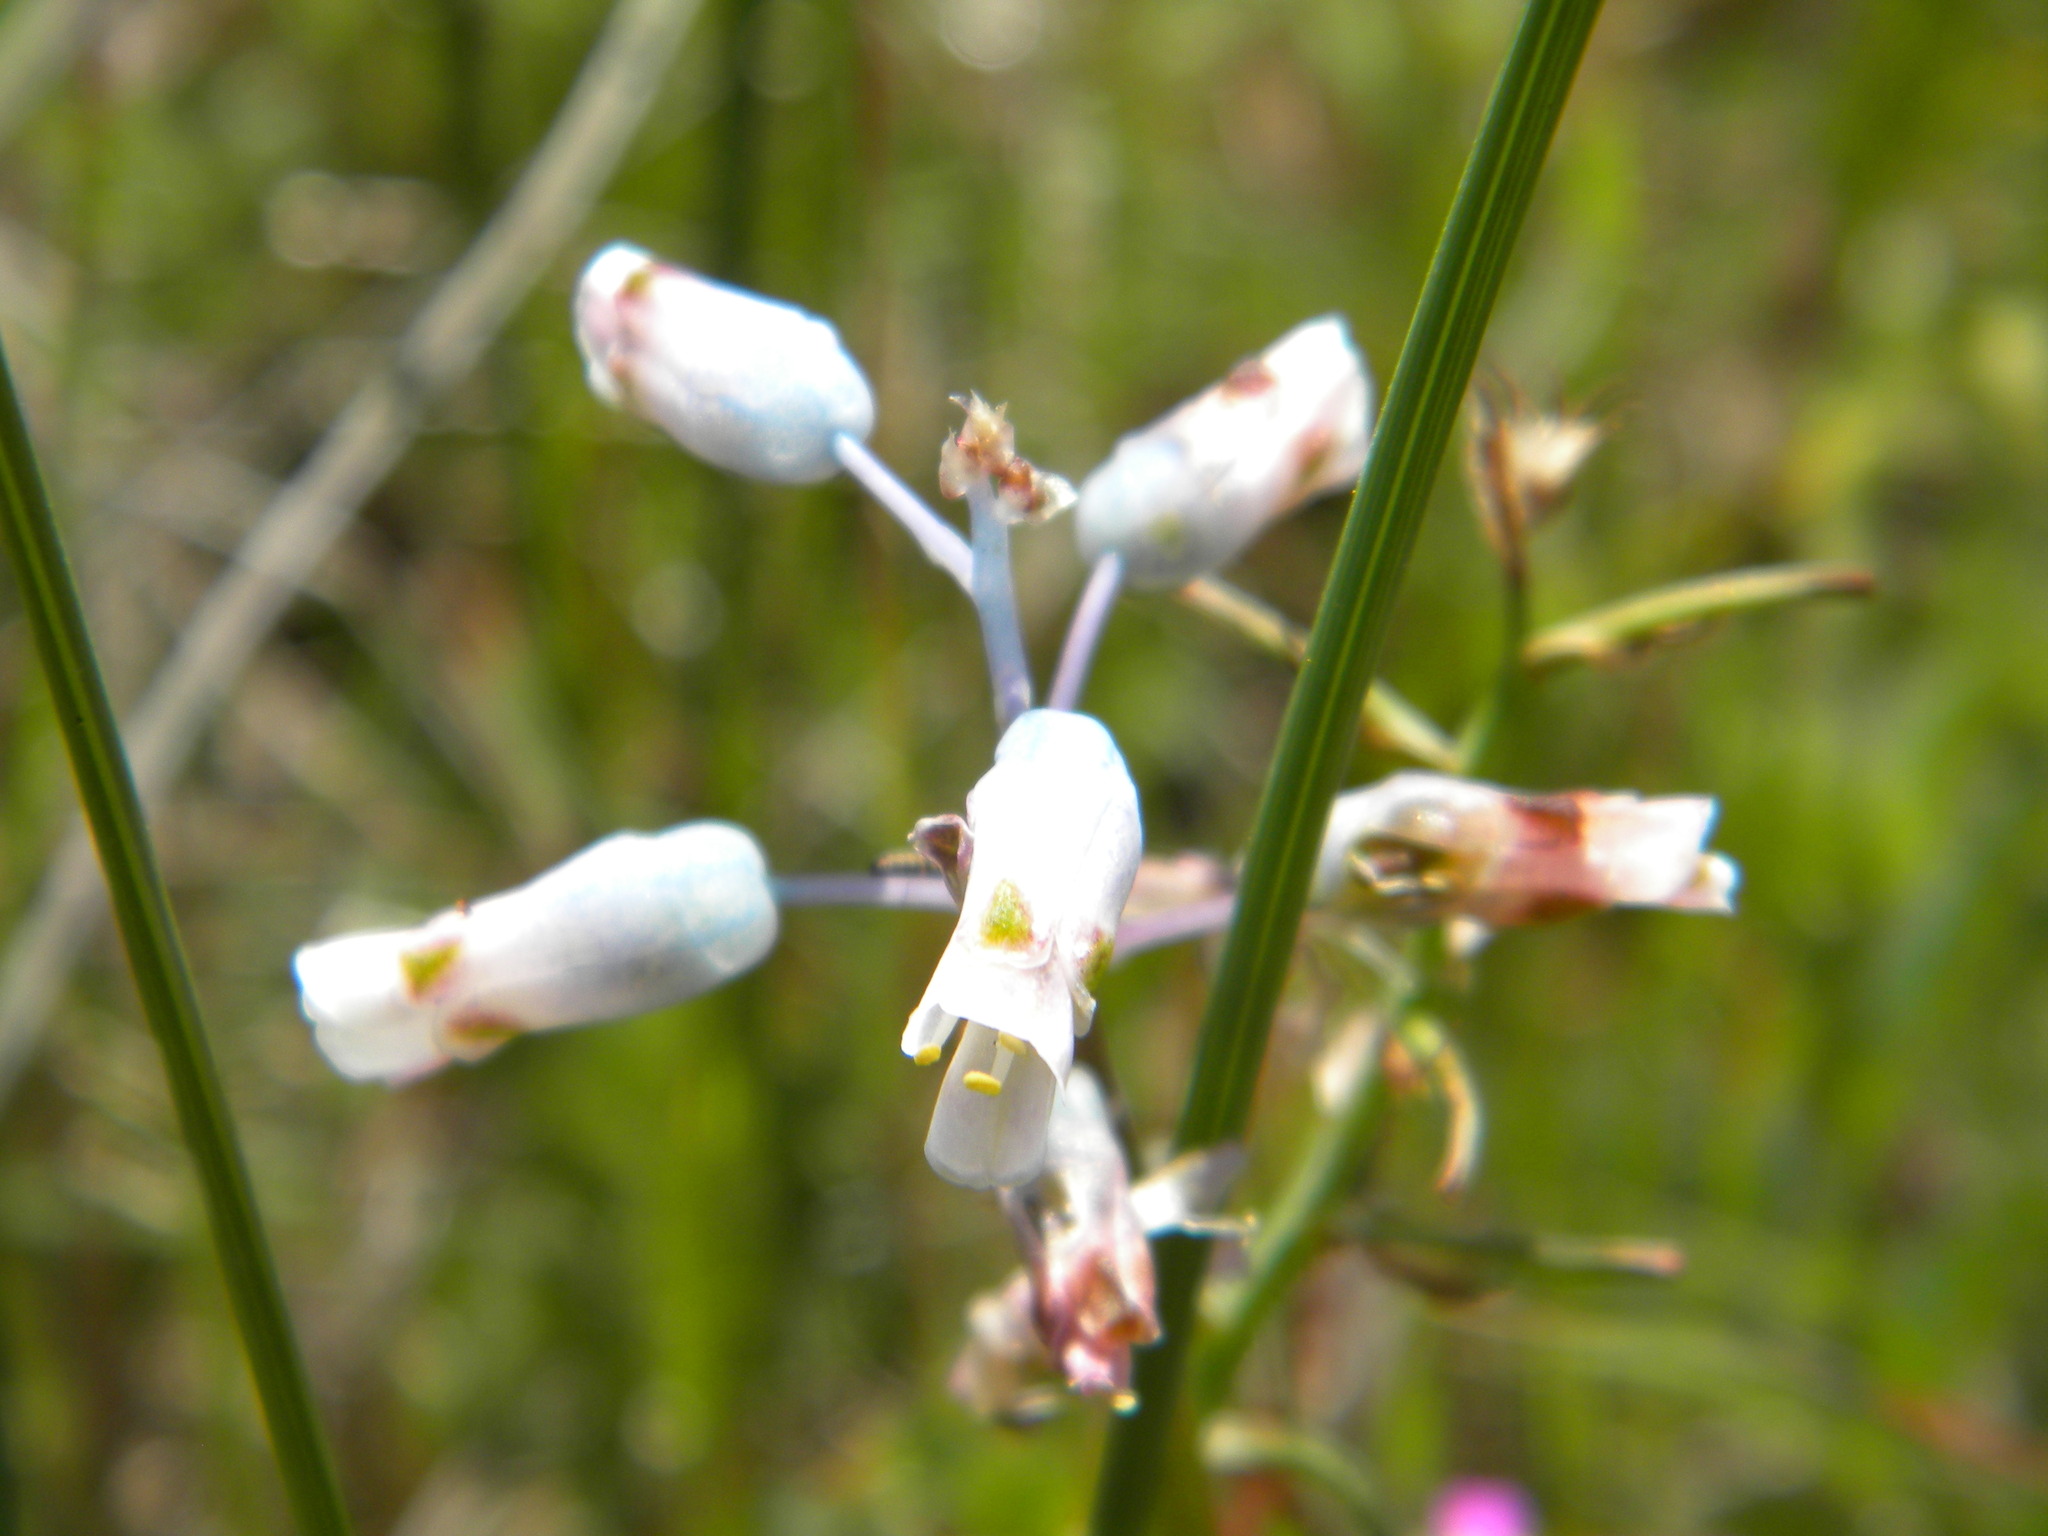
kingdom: Plantae
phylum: Tracheophyta
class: Liliopsida
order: Asparagales
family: Asparagaceae
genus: Lachenalia
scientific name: Lachenalia unifolia
